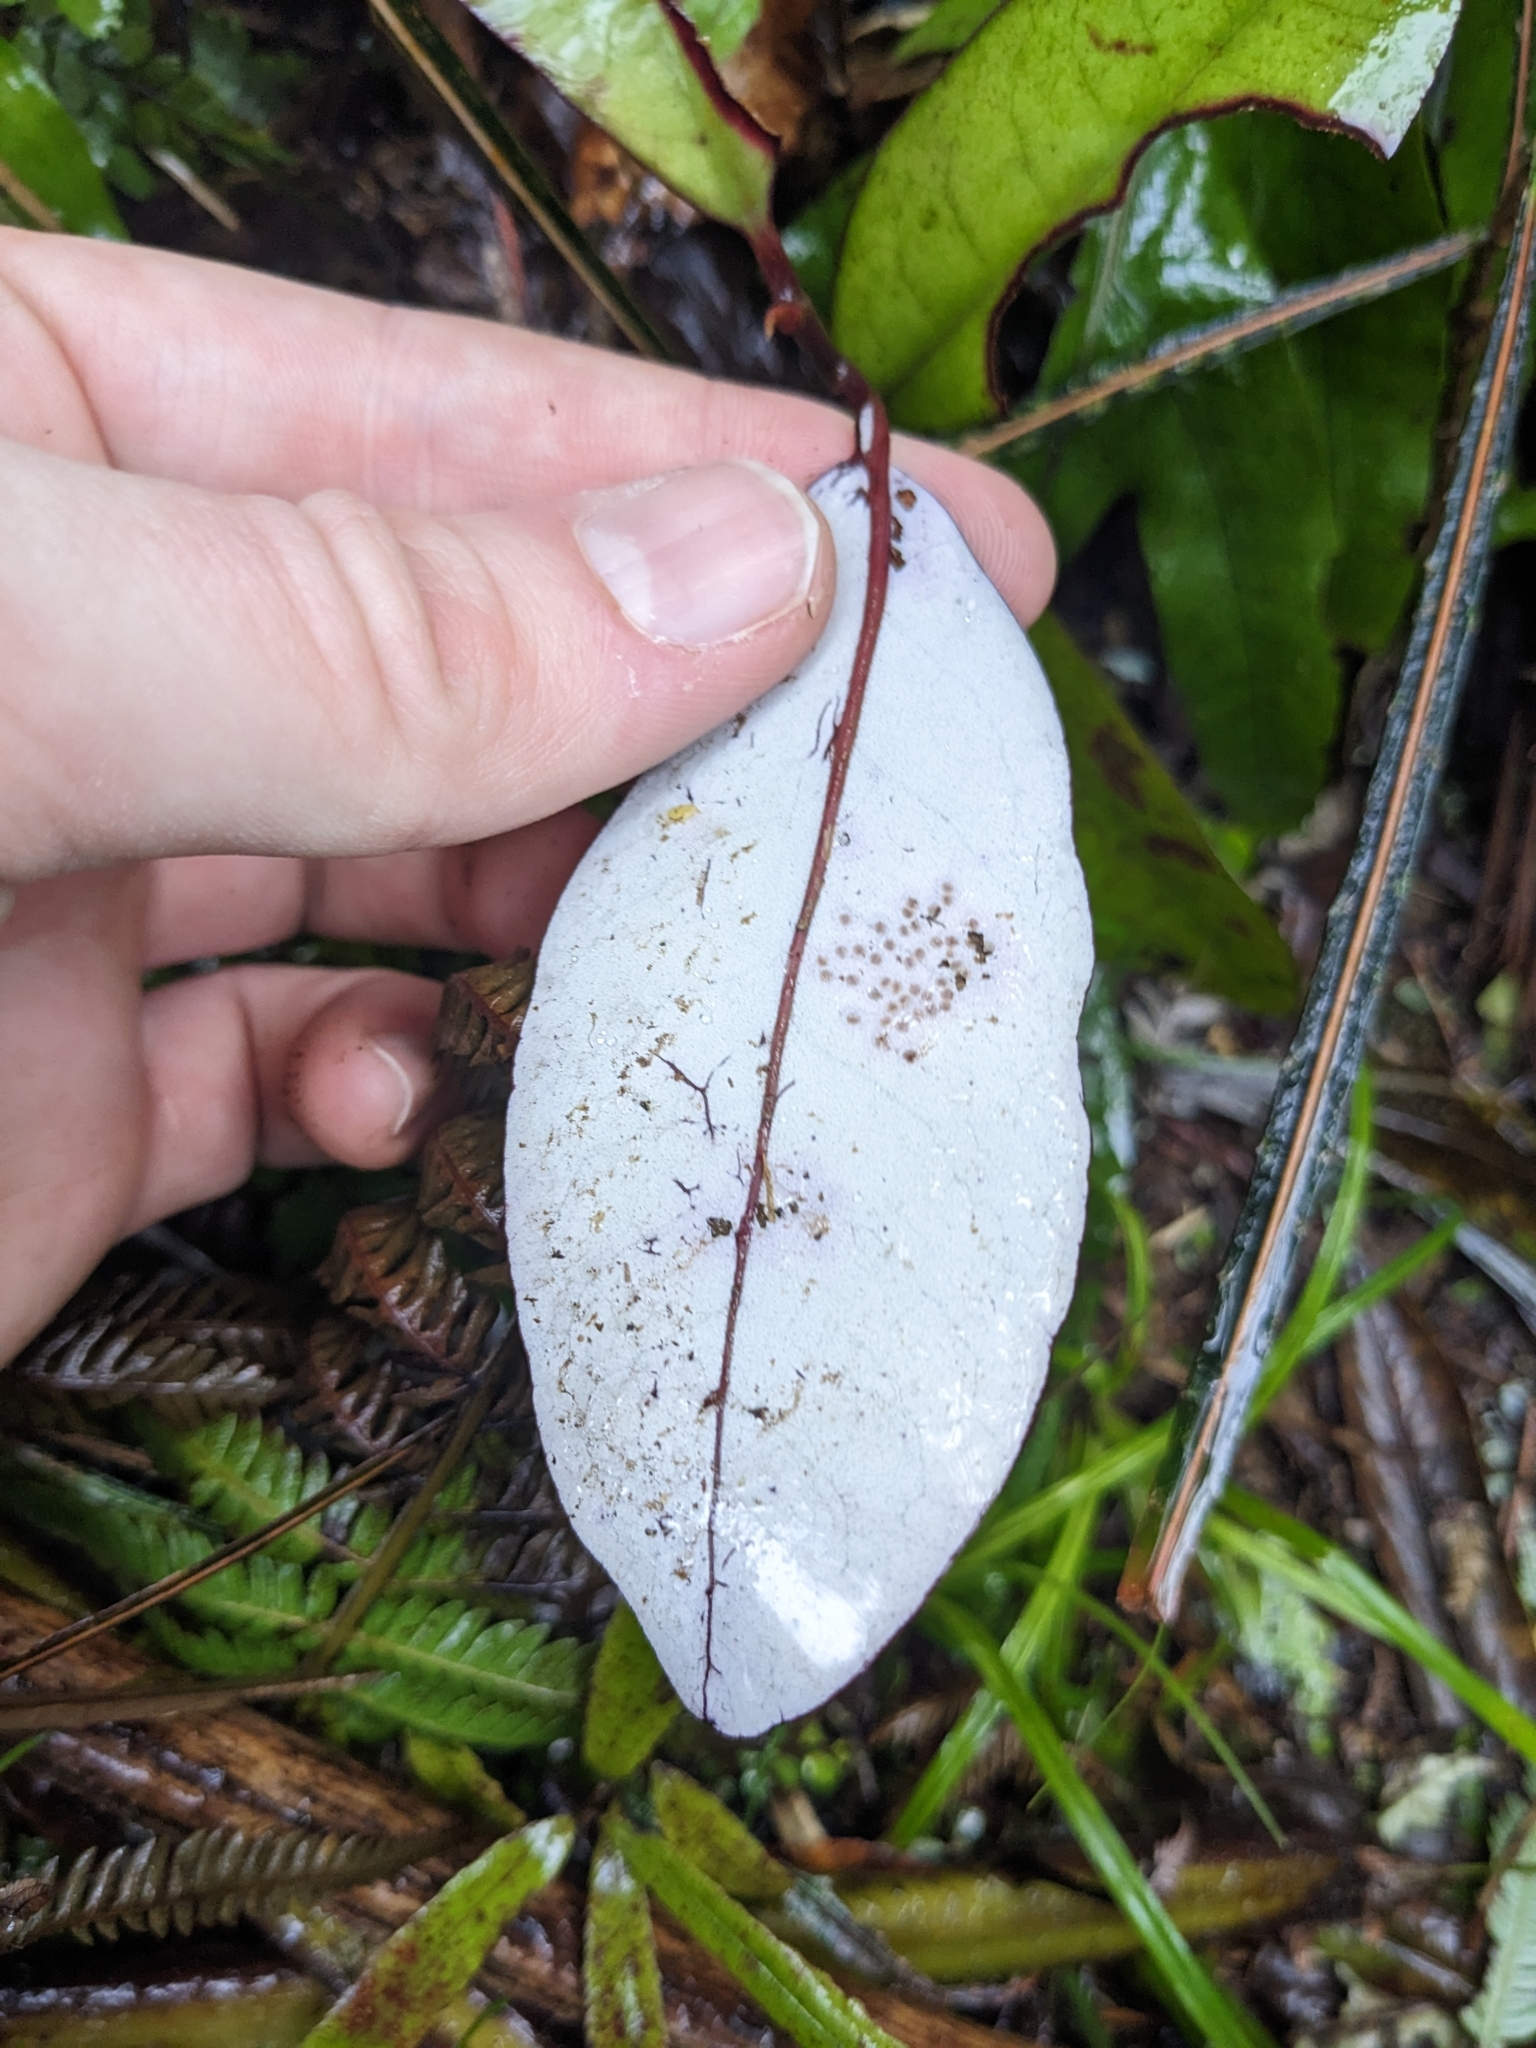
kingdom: Plantae
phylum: Tracheophyta
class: Magnoliopsida
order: Canellales
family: Winteraceae
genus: Pseudowintera
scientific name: Pseudowintera colorata
